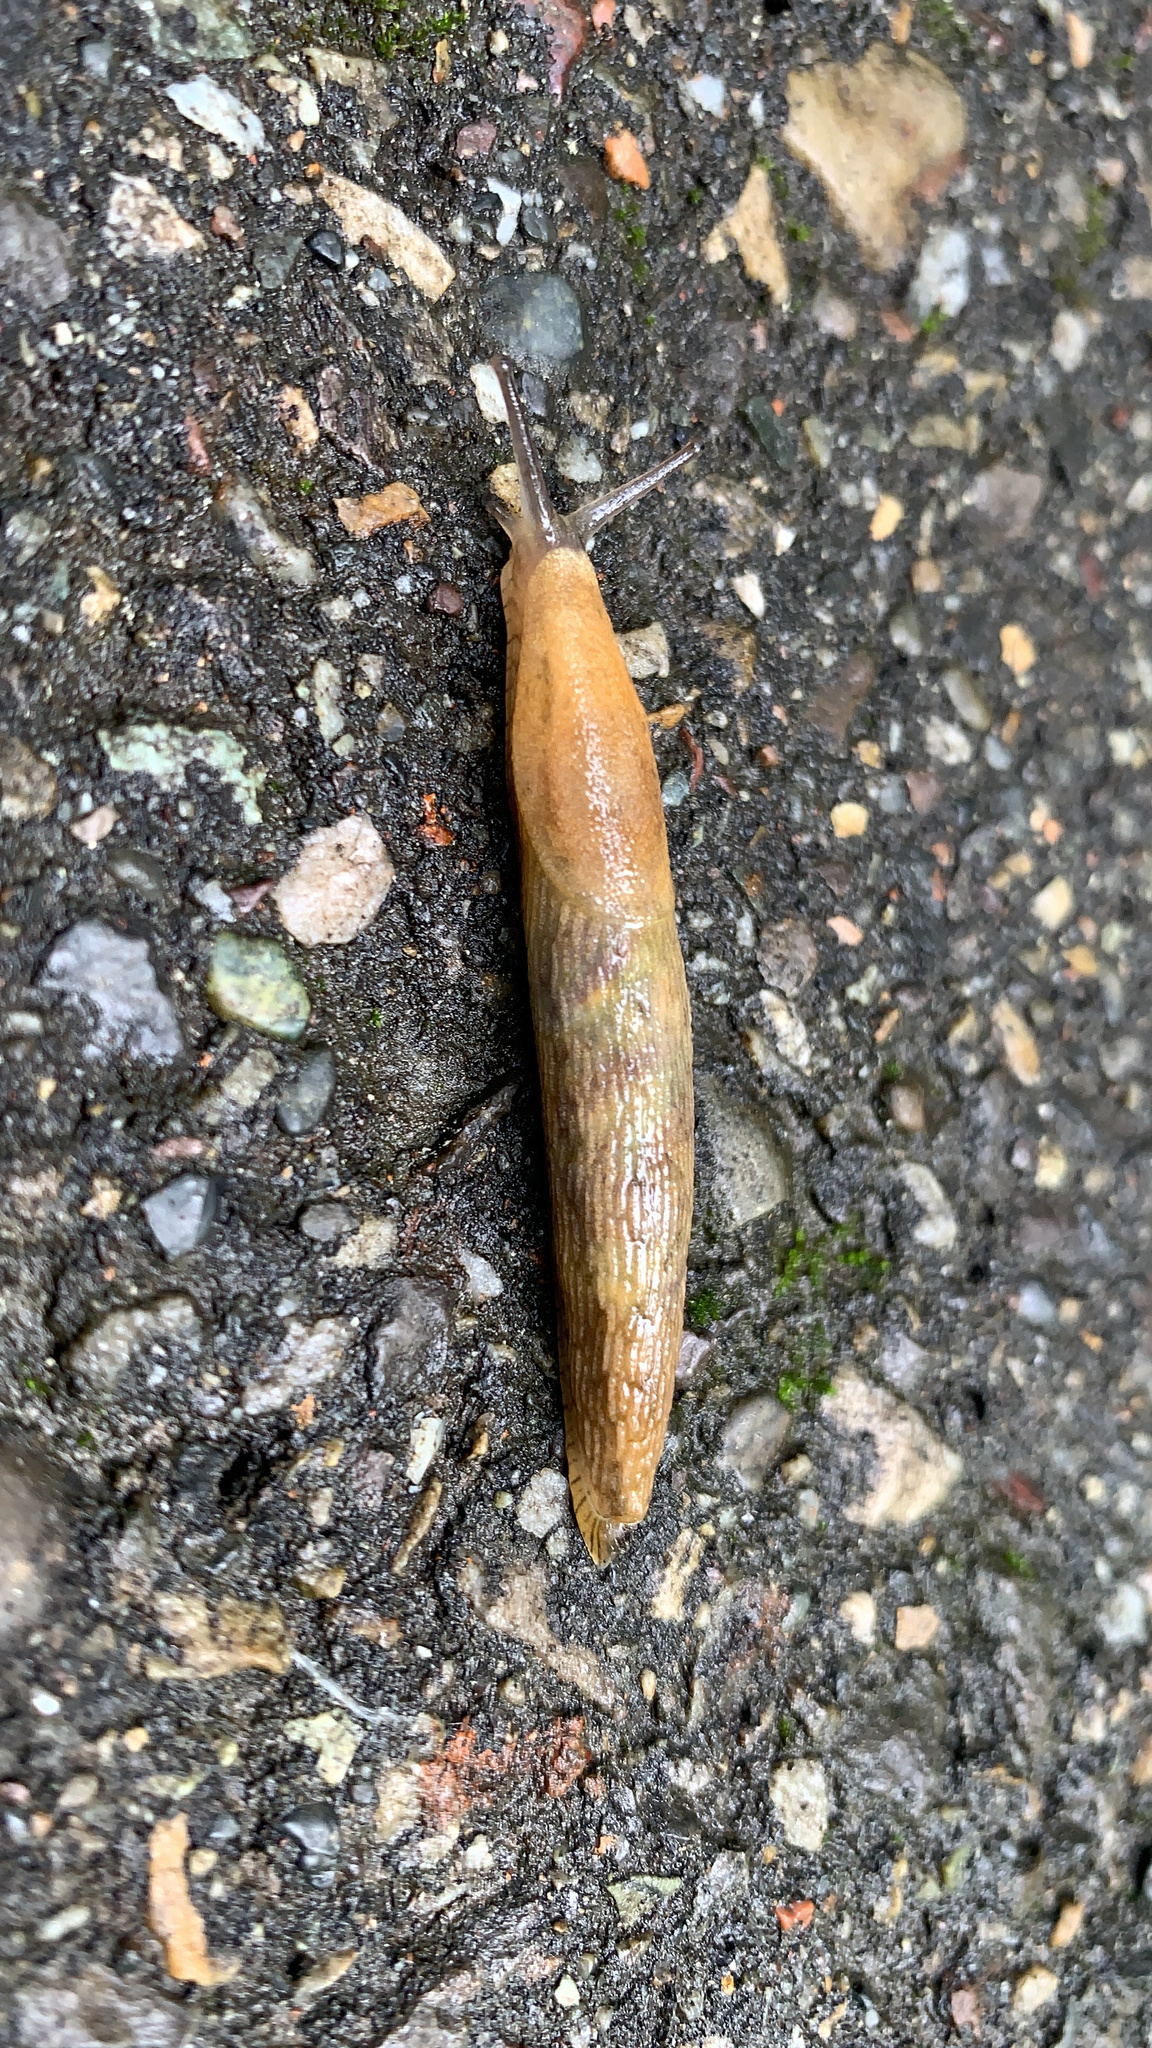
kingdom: Animalia
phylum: Mollusca
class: Gastropoda
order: Stylommatophora
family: Arionidae
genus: Arion
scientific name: Arion subfuscus
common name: Dusky arion
